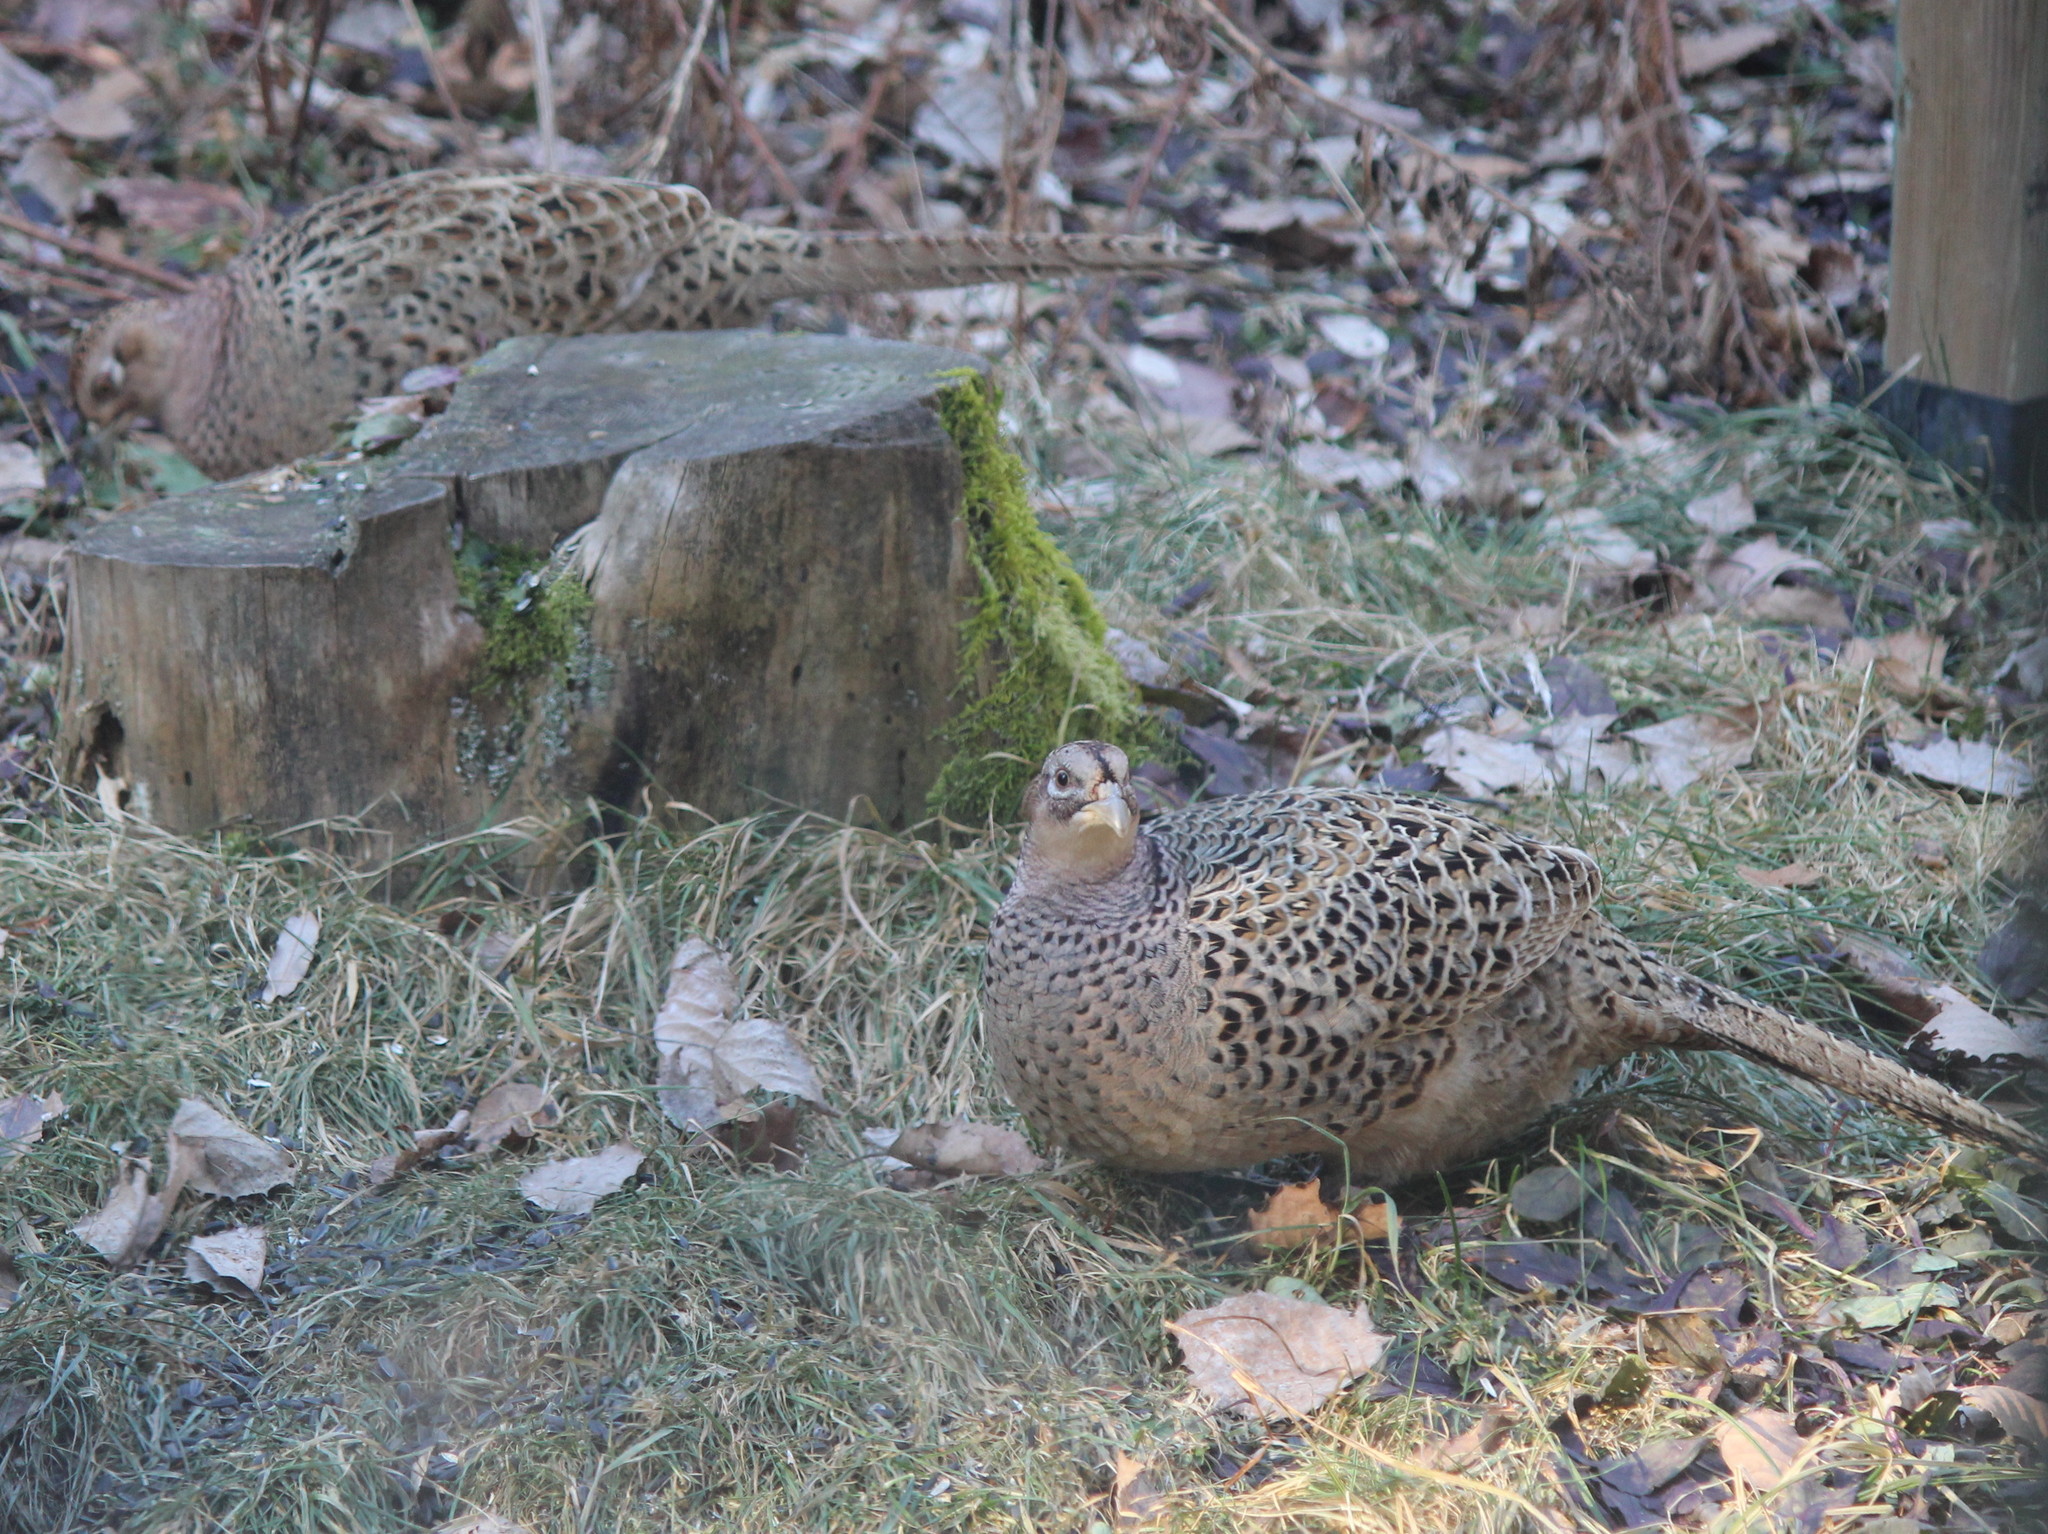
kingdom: Animalia
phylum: Chordata
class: Aves
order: Galliformes
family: Phasianidae
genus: Phasianus
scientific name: Phasianus colchicus
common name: Common pheasant
